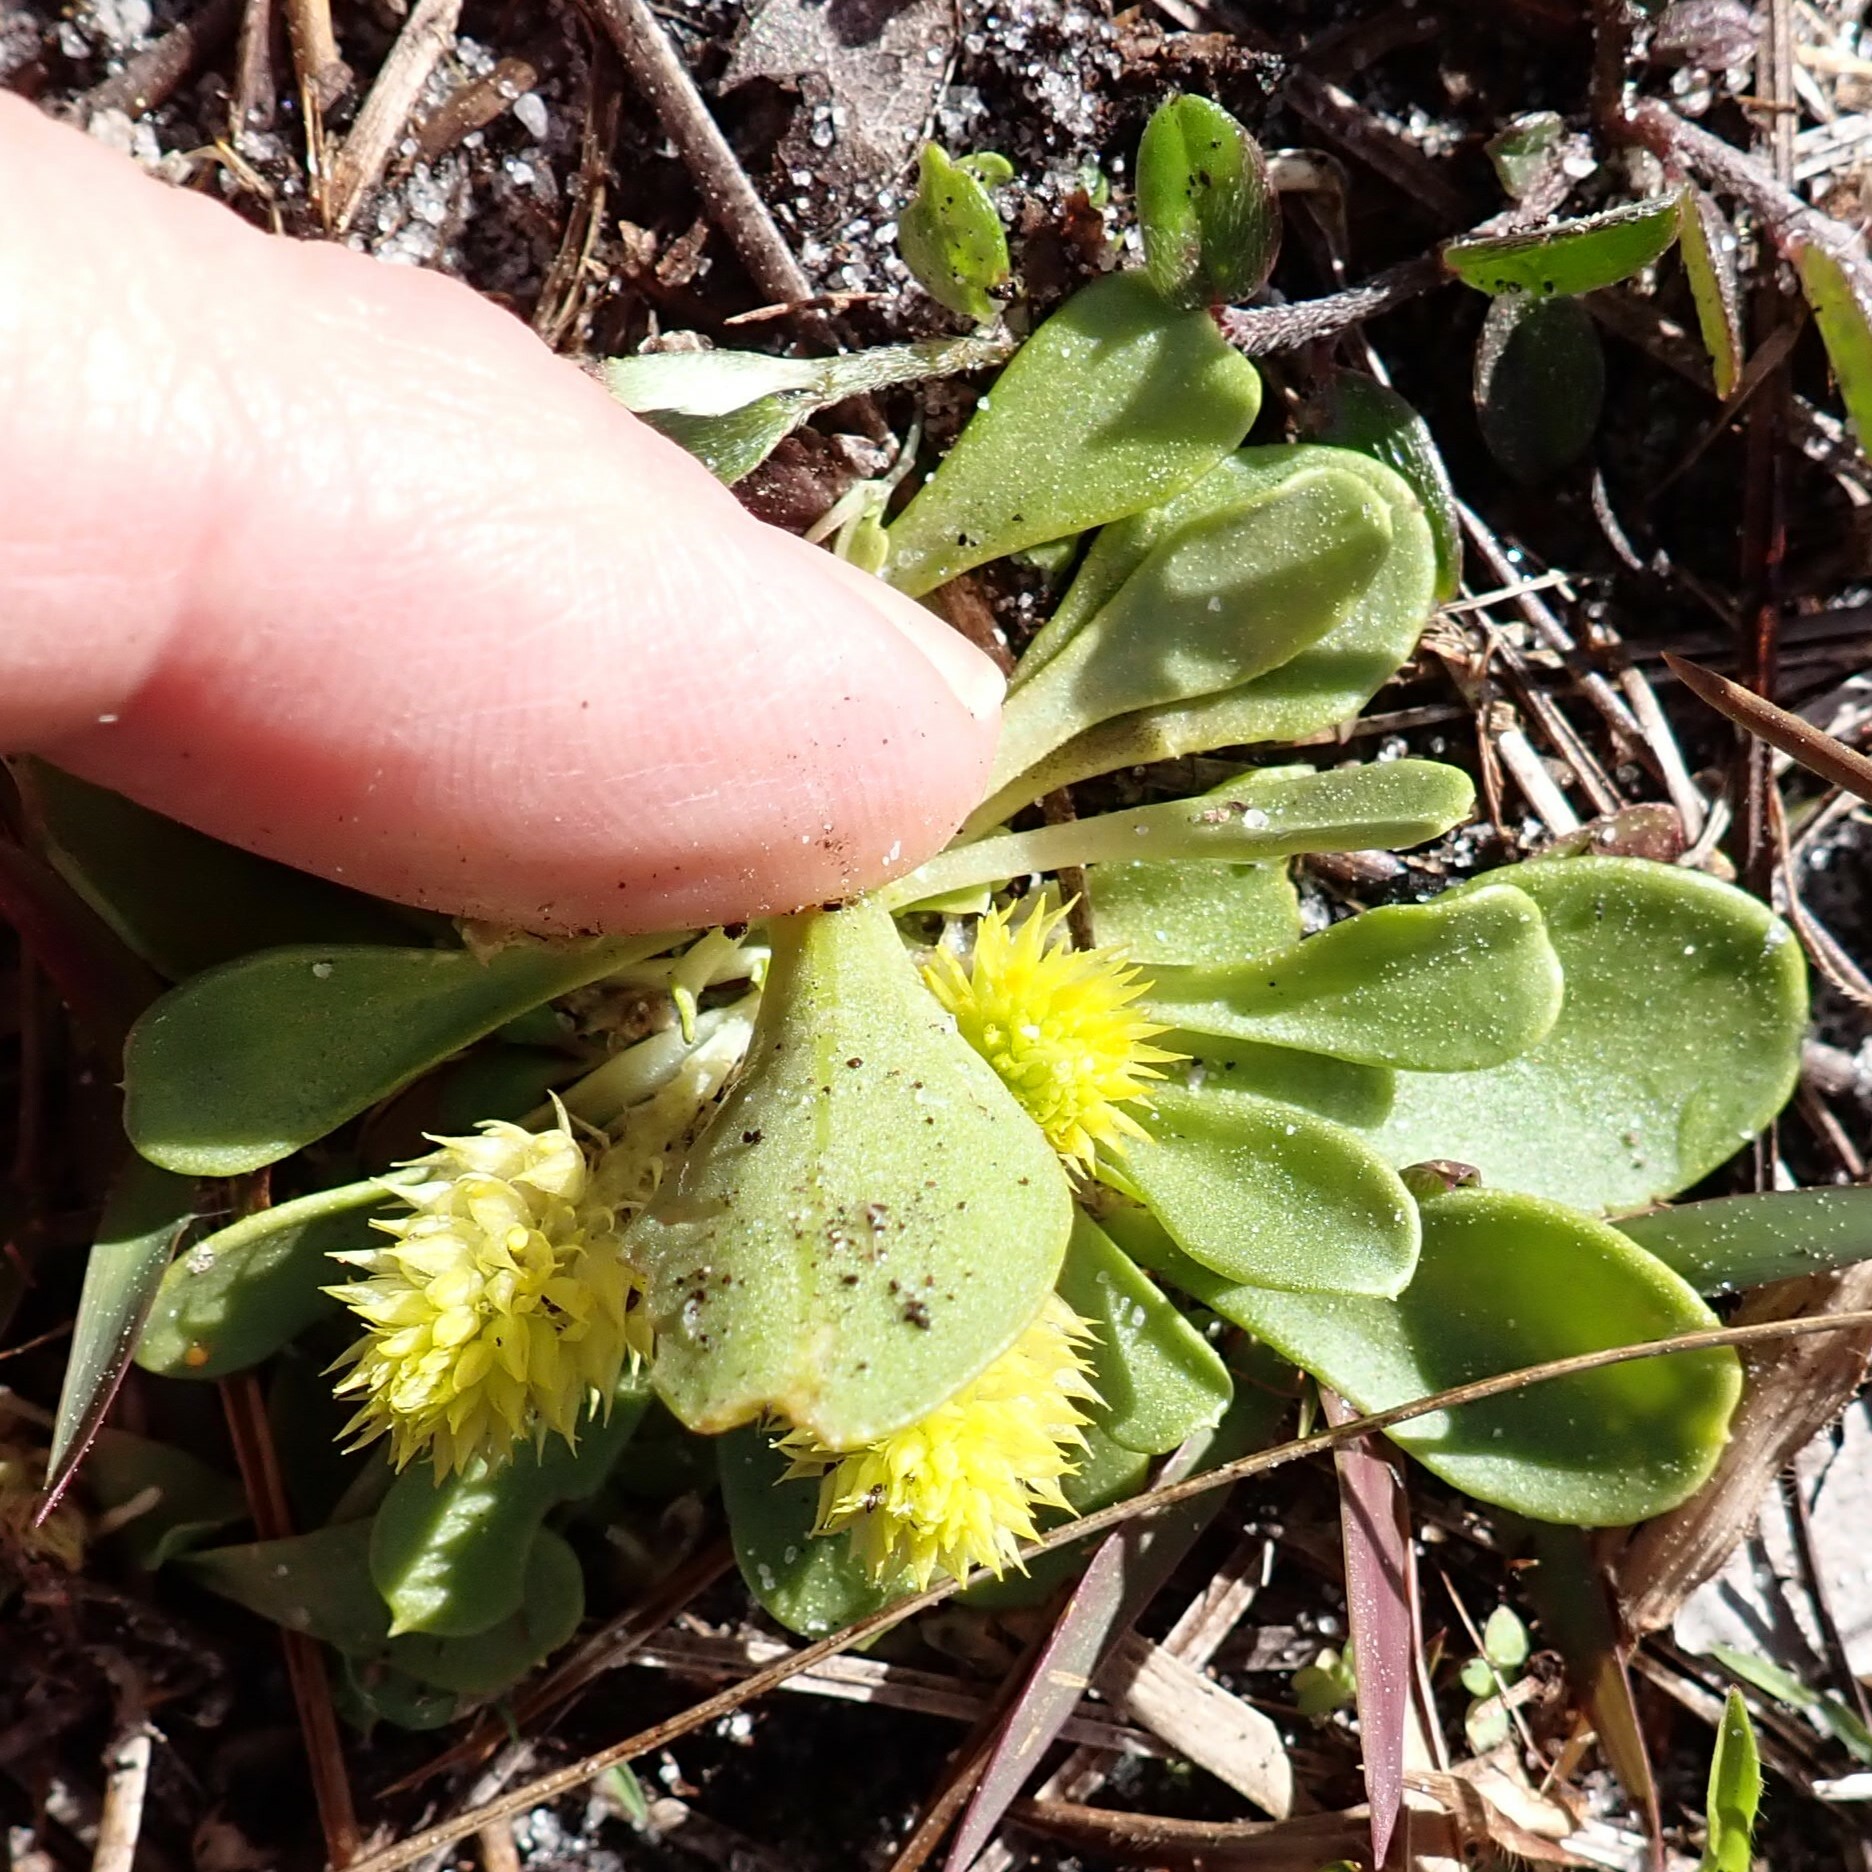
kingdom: Plantae
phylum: Tracheophyta
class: Magnoliopsida
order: Fabales
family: Polygalaceae
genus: Polygala
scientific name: Polygala nana
